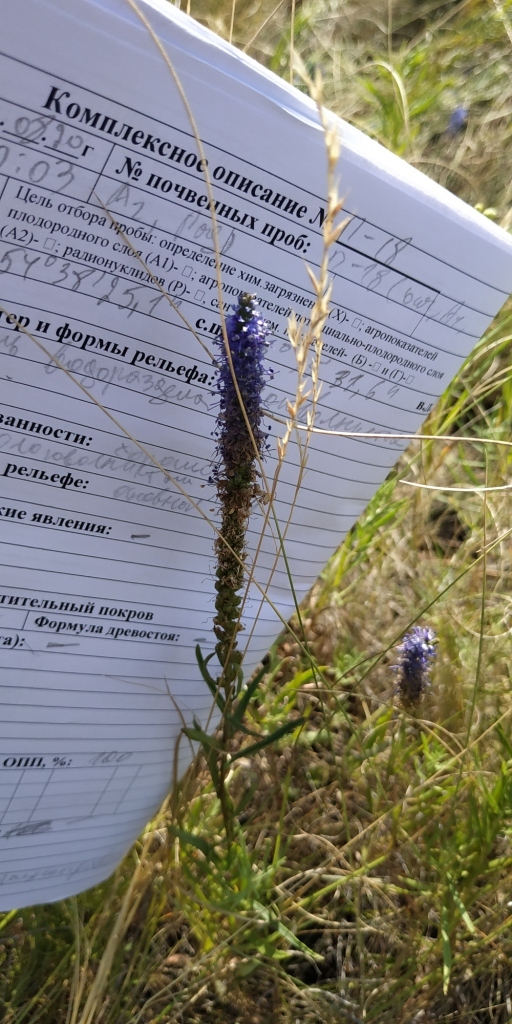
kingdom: Plantae
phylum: Tracheophyta
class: Magnoliopsida
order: Lamiales
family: Plantaginaceae
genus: Veronica
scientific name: Veronica spicata
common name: Spiked speedwell
